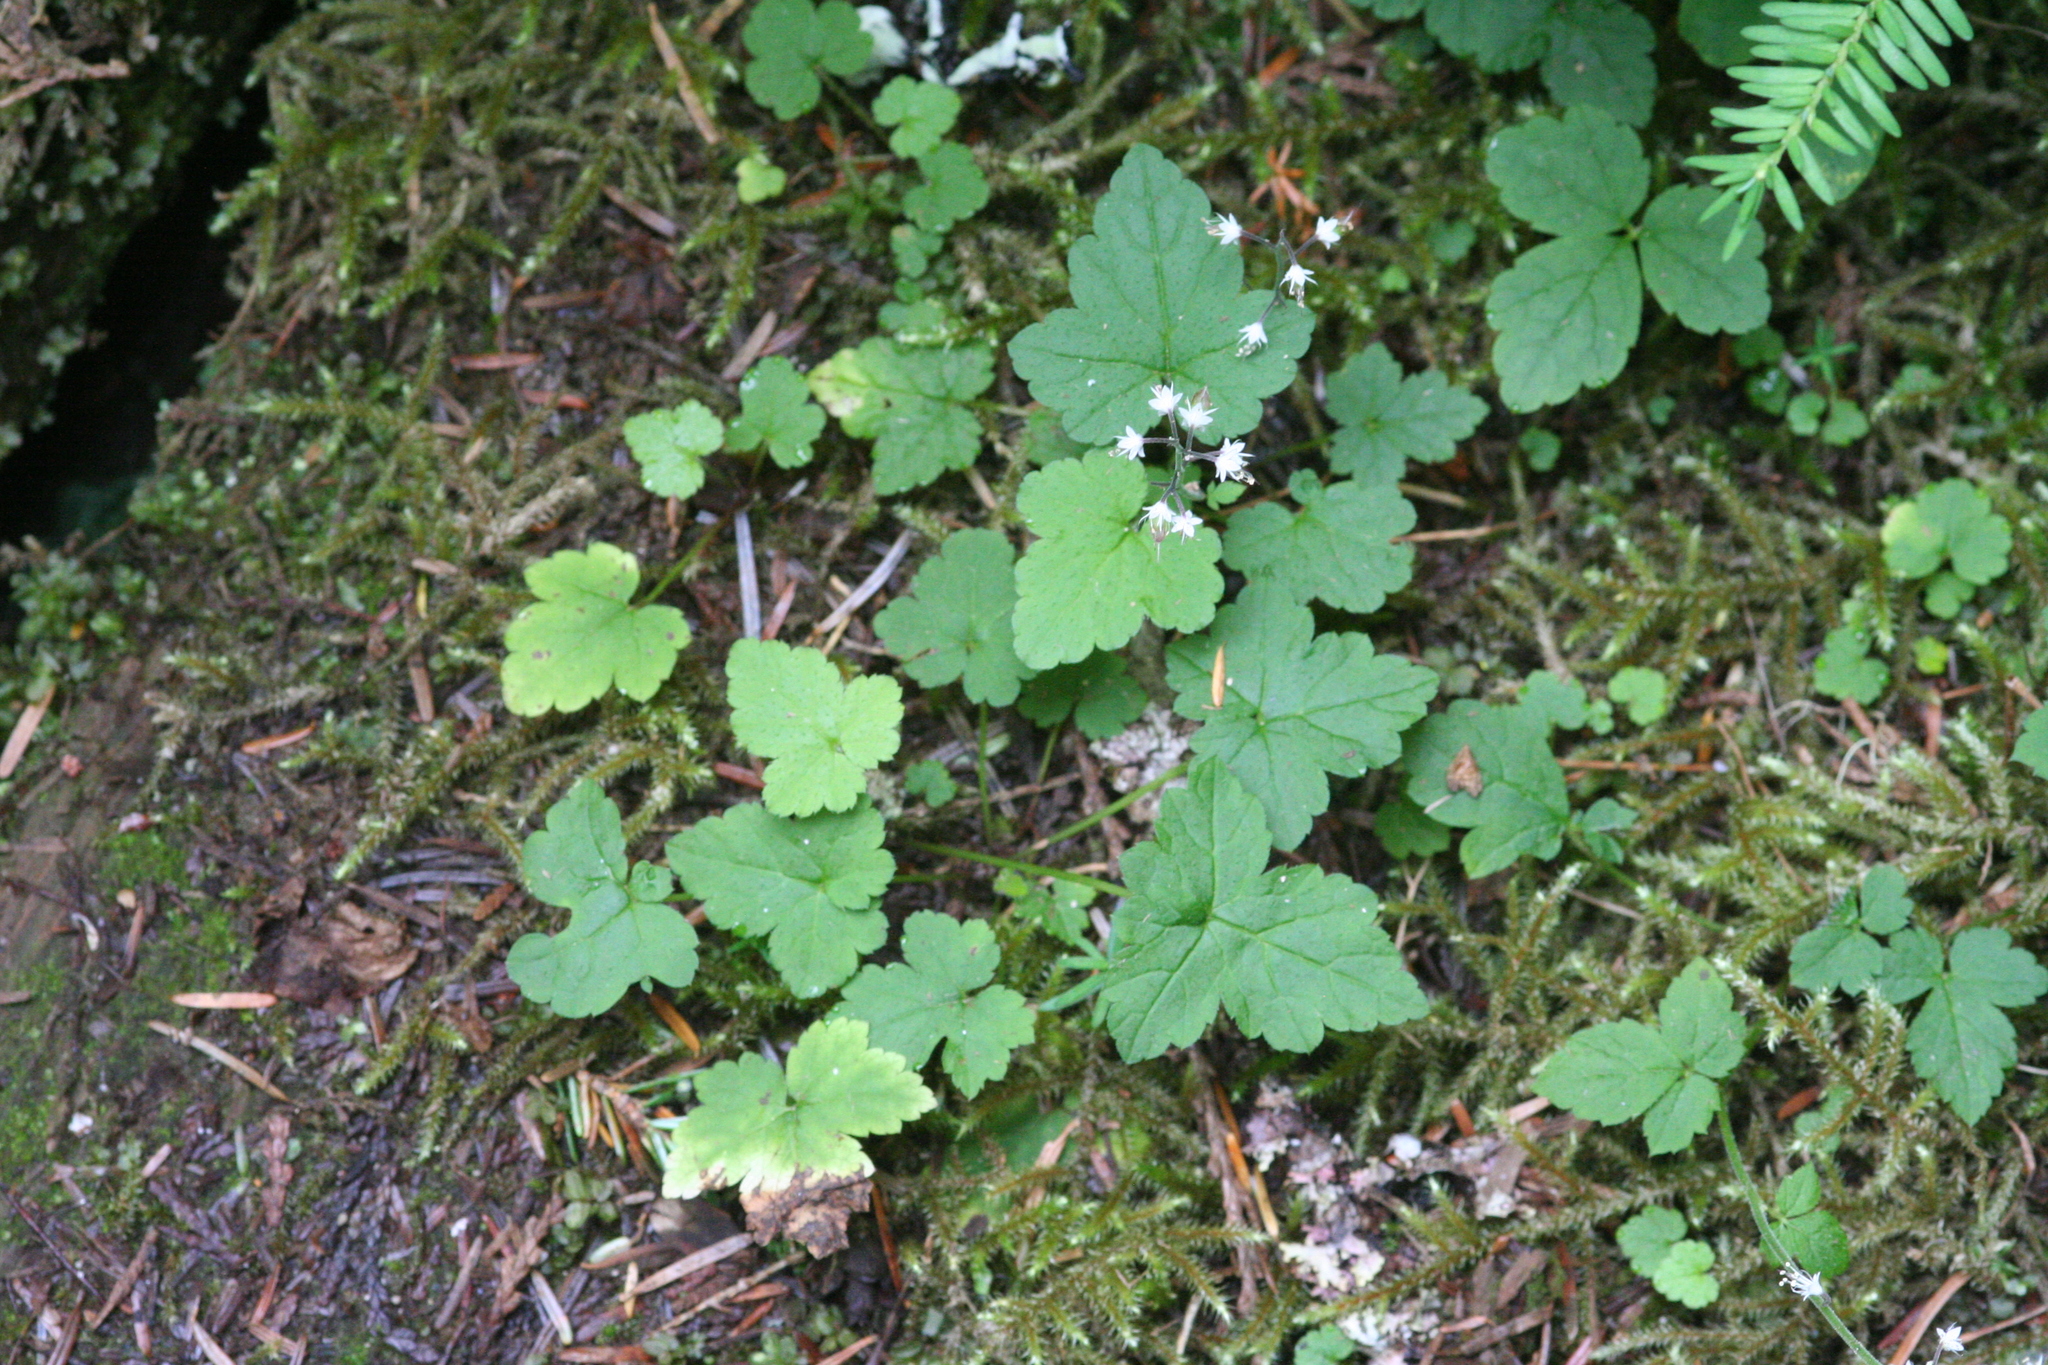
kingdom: Plantae
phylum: Tracheophyta
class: Magnoliopsida
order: Saxifragales
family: Saxifragaceae
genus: Tiarella
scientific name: Tiarella trifoliata
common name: Sugar-scoop
